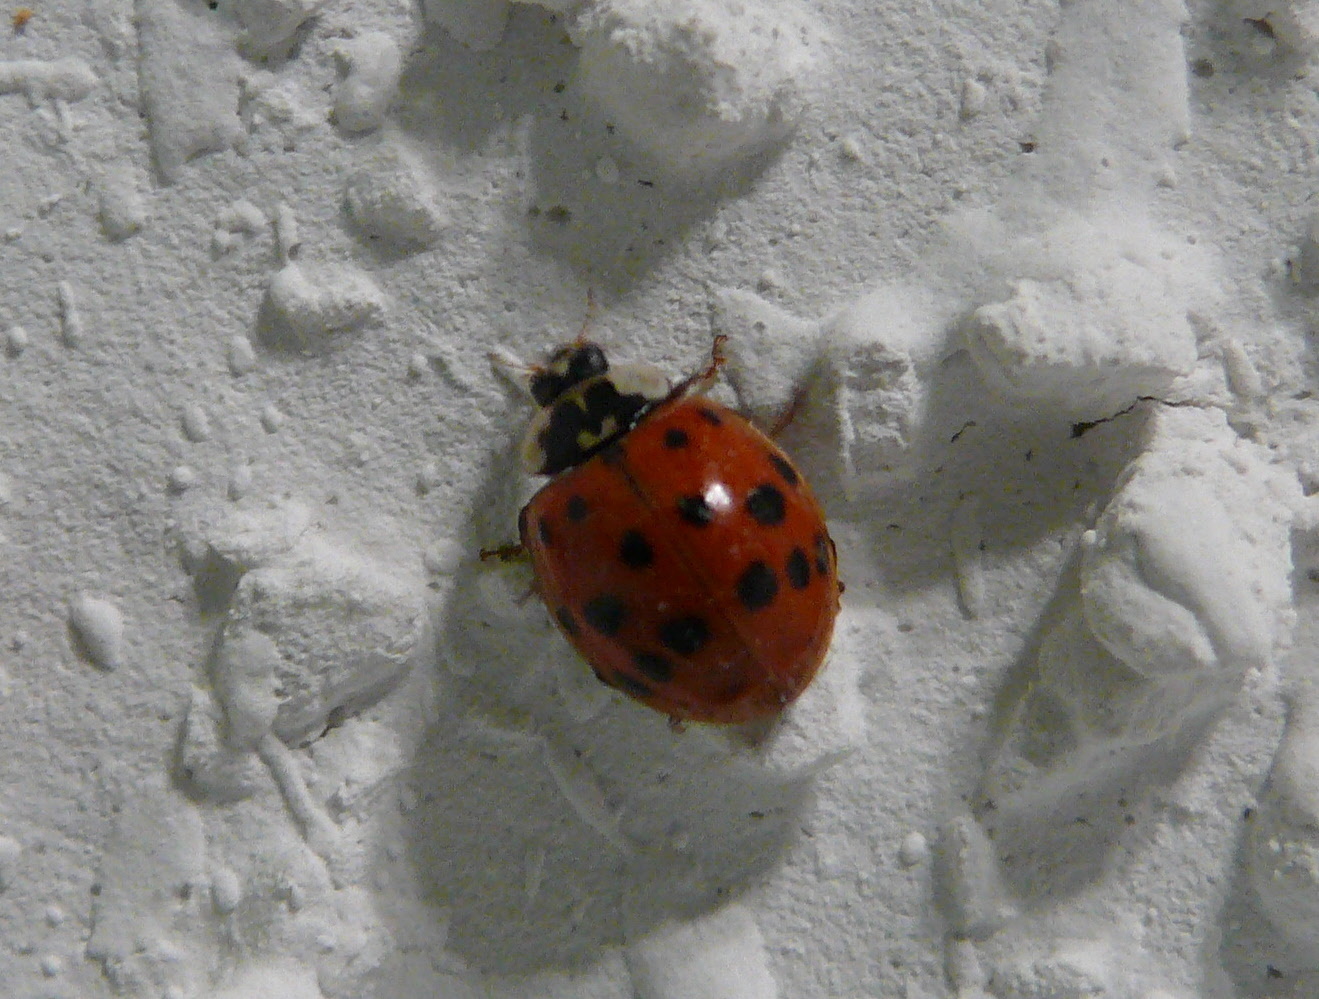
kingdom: Animalia
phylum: Arthropoda
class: Insecta
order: Coleoptera
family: Coccinellidae
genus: Harmonia
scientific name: Harmonia axyridis
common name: Harlequin ladybird
